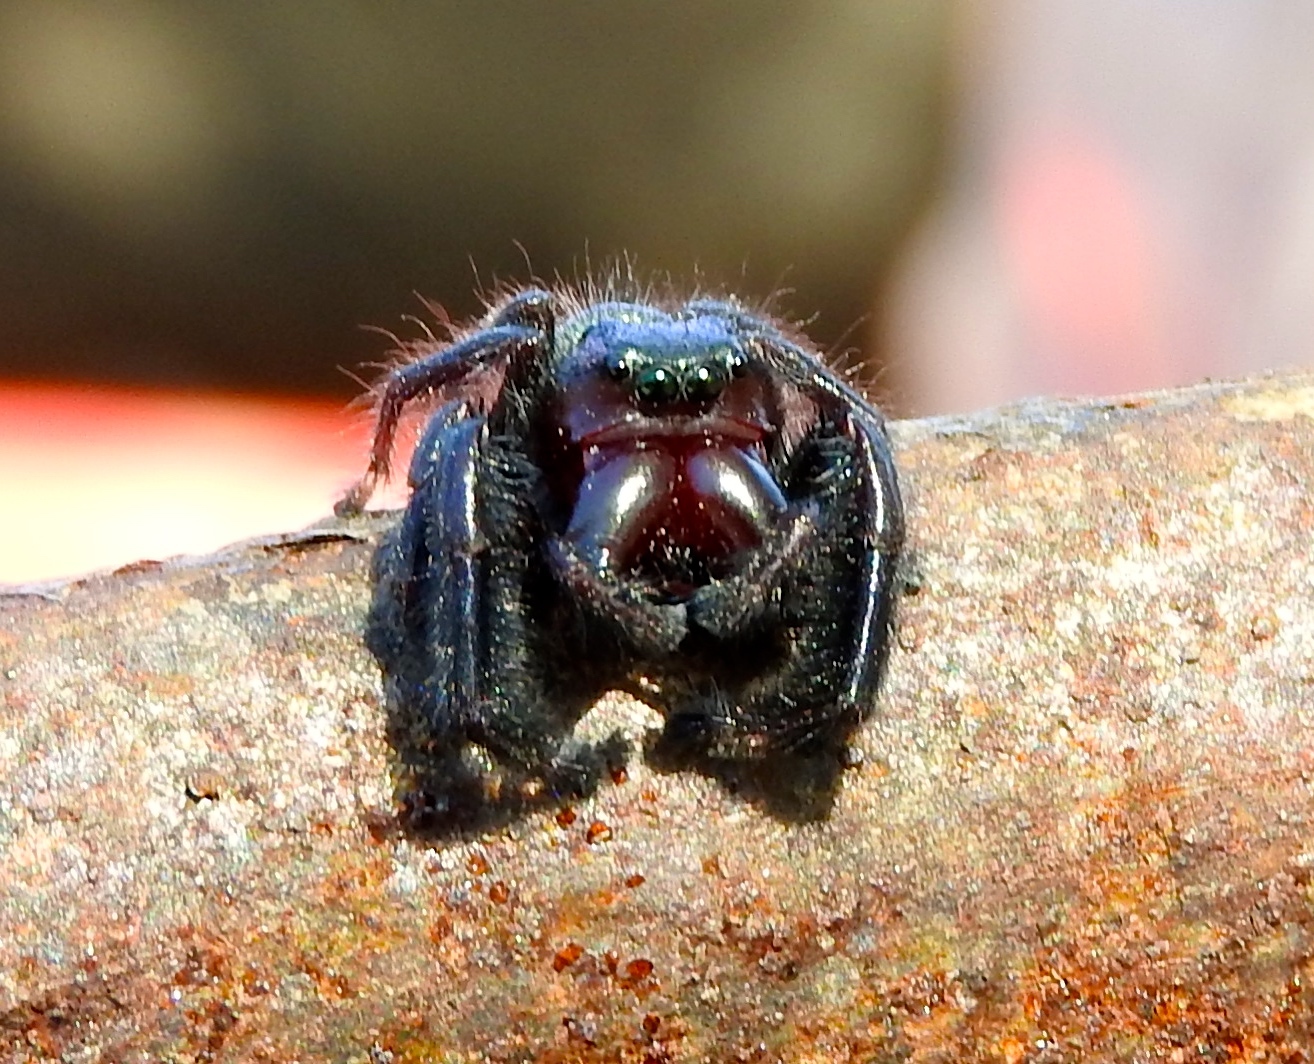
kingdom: Animalia
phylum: Arthropoda
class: Arachnida
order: Araneae
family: Salticidae
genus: Paraphidippus
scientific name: Paraphidippus fartilis
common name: Jumping spiders
